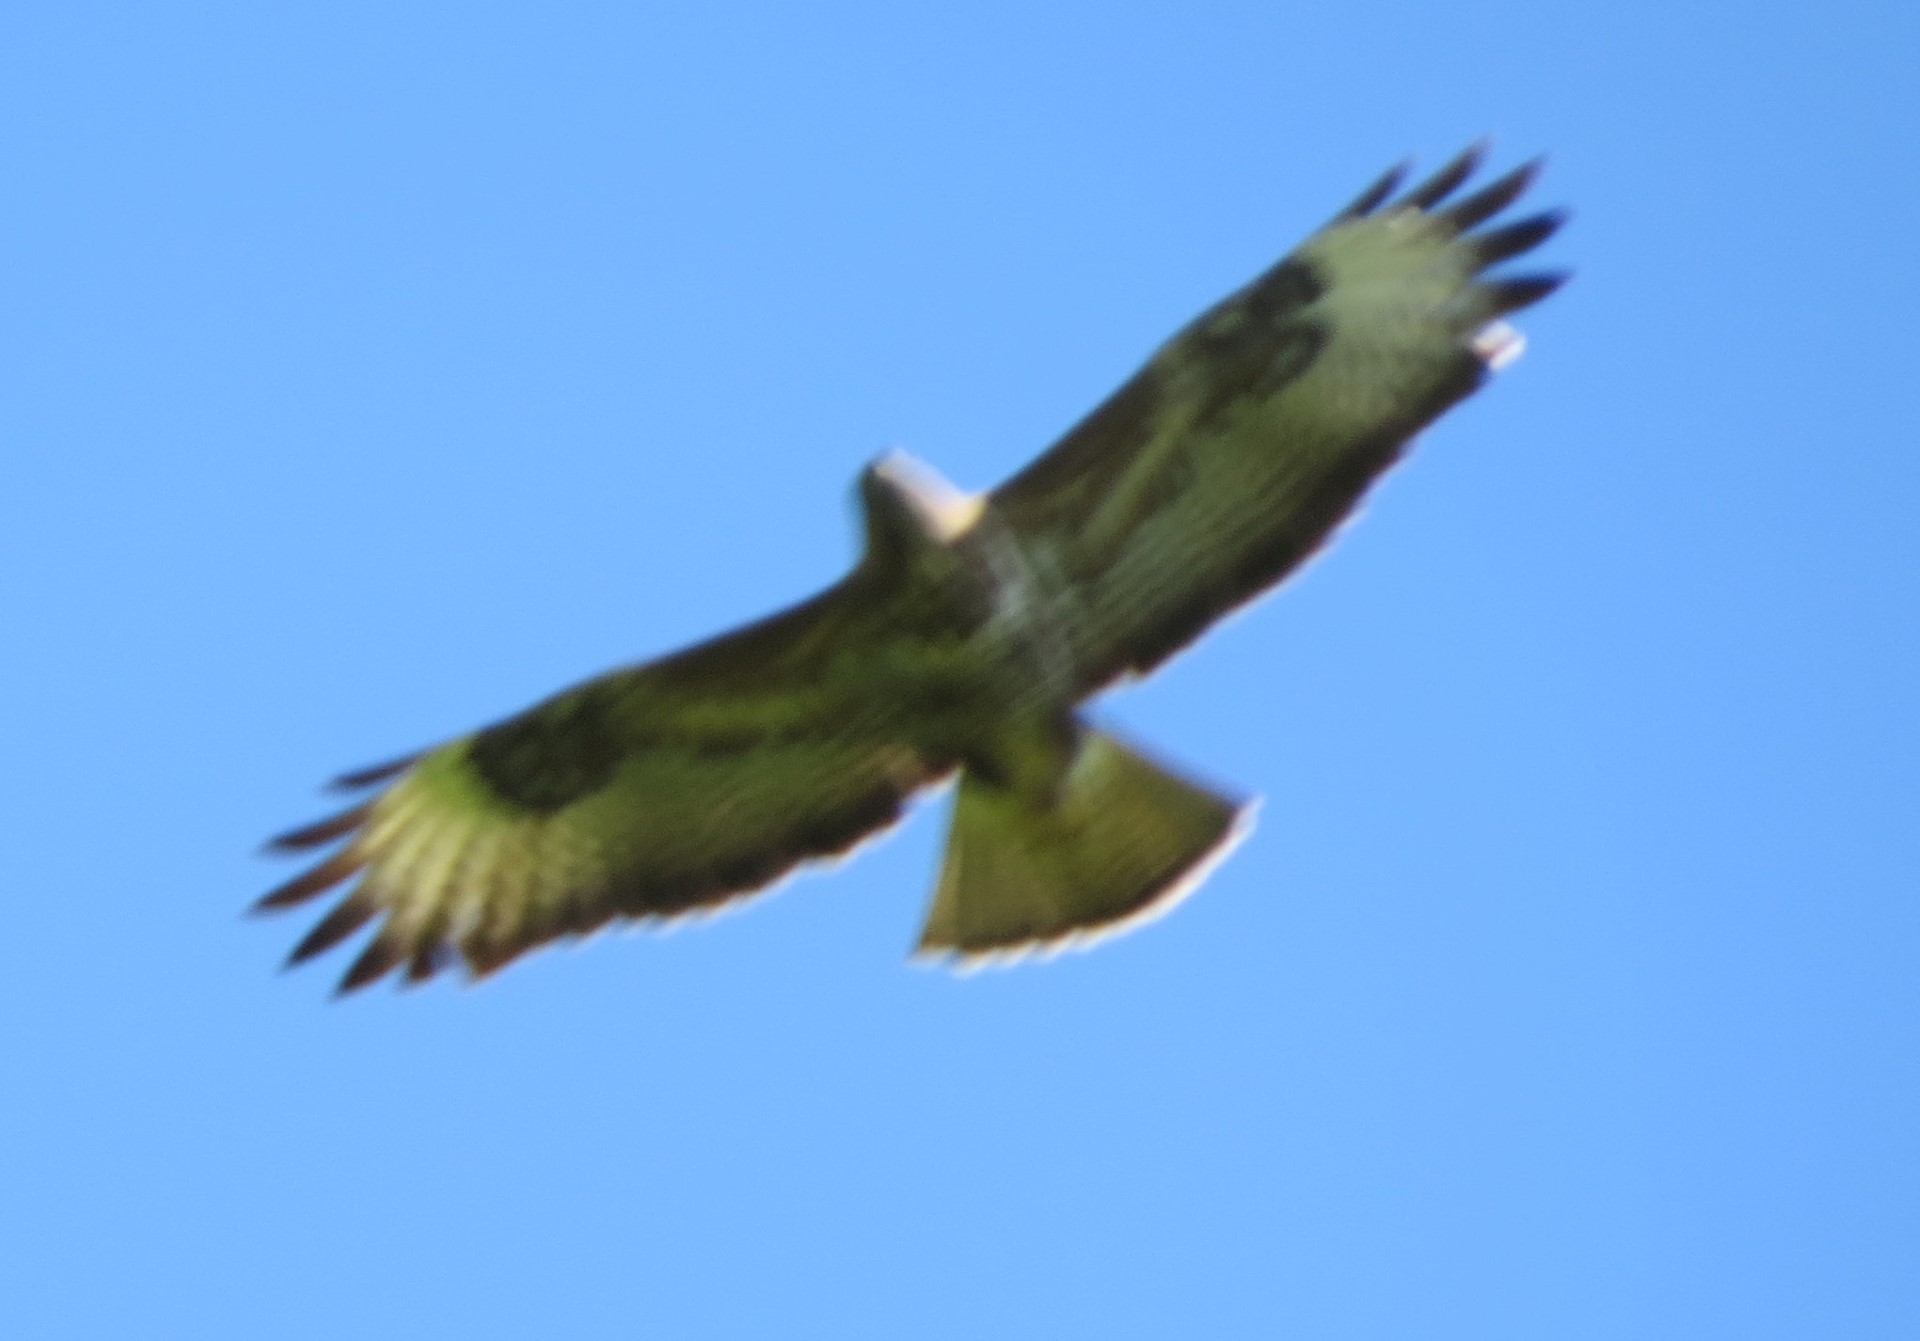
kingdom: Animalia
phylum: Chordata
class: Aves
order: Accipitriformes
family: Accipitridae
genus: Buteo
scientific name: Buteo buteo
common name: Common buzzard
